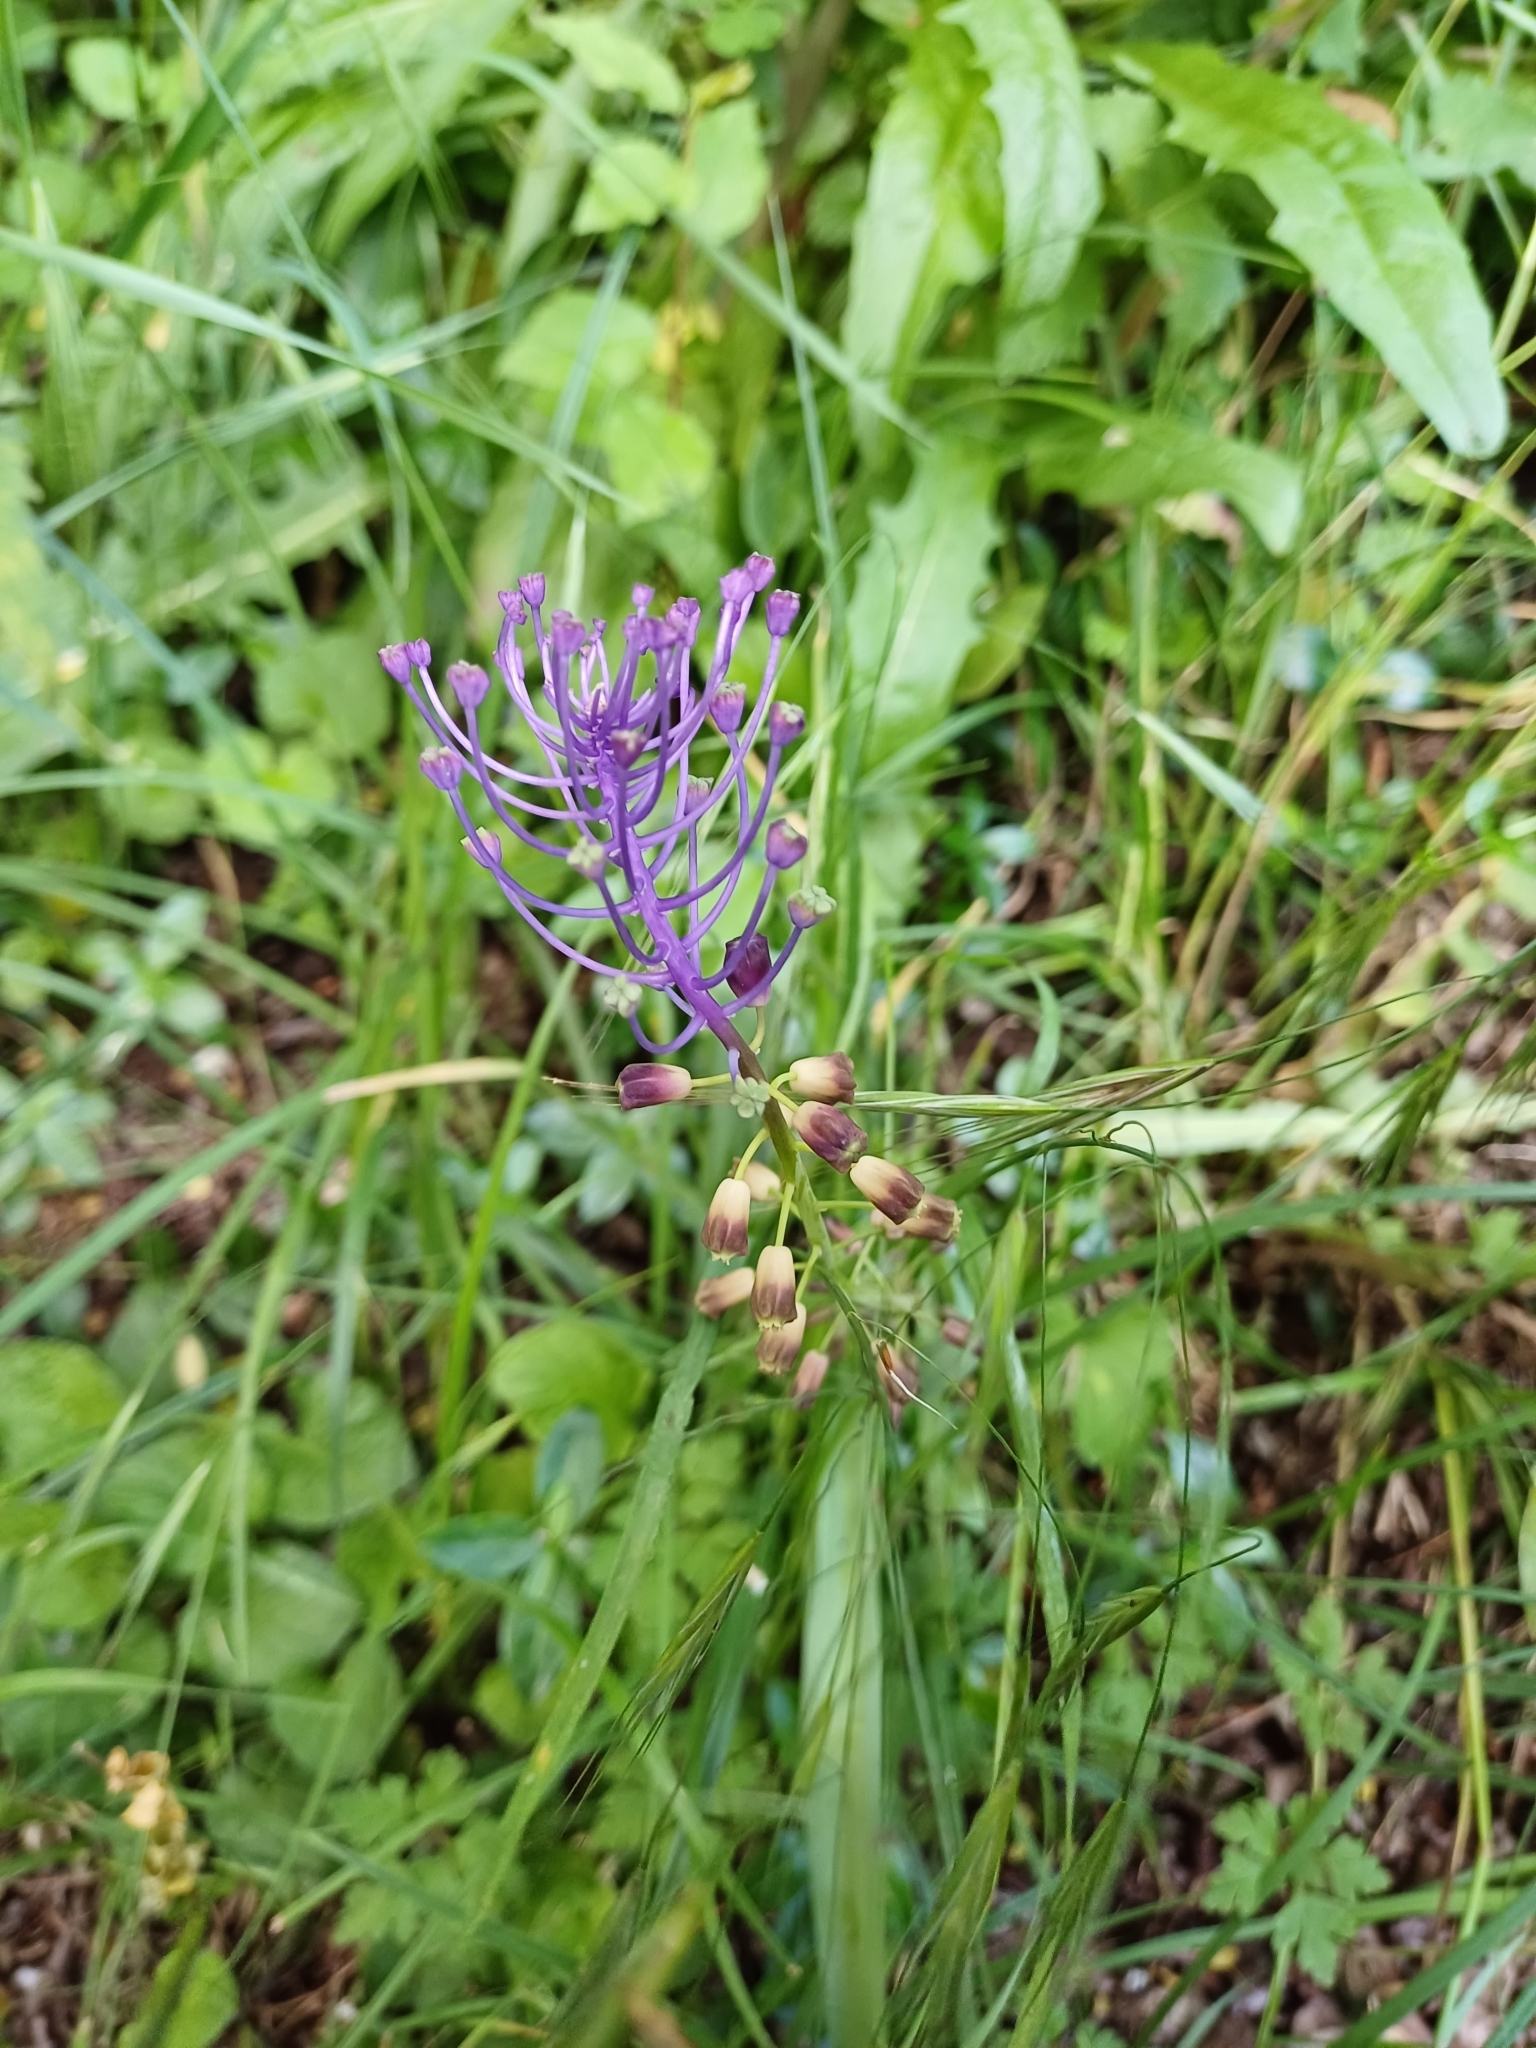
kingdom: Plantae
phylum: Tracheophyta
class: Liliopsida
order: Asparagales
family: Asparagaceae
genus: Muscari
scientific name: Muscari comosum
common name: Tassel hyacinth
